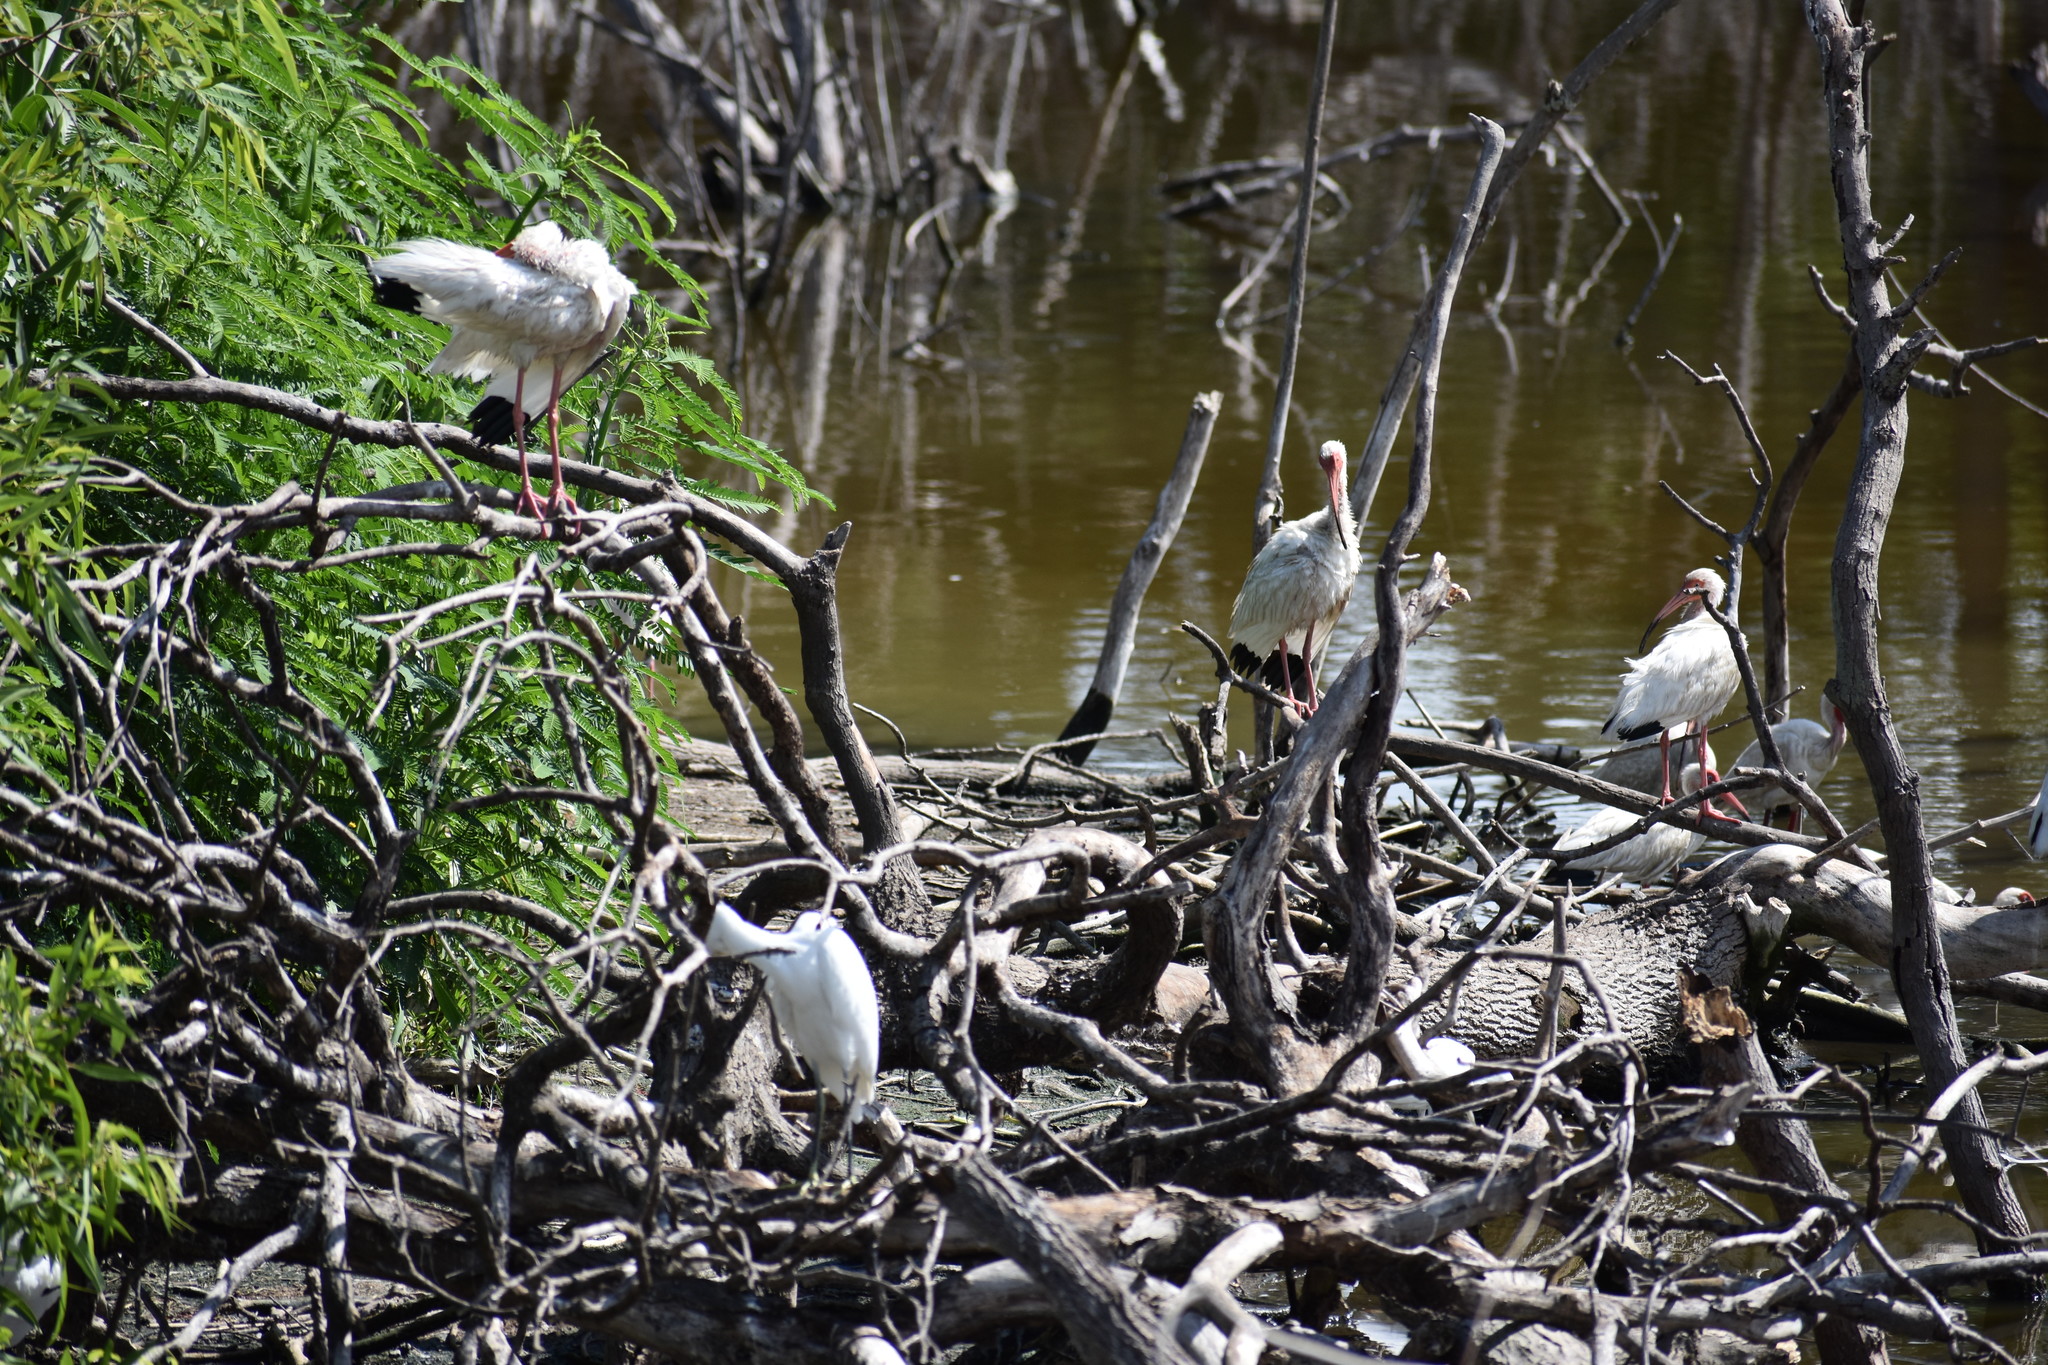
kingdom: Animalia
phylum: Chordata
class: Aves
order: Pelecaniformes
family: Threskiornithidae
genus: Eudocimus
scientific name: Eudocimus albus
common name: White ibis
